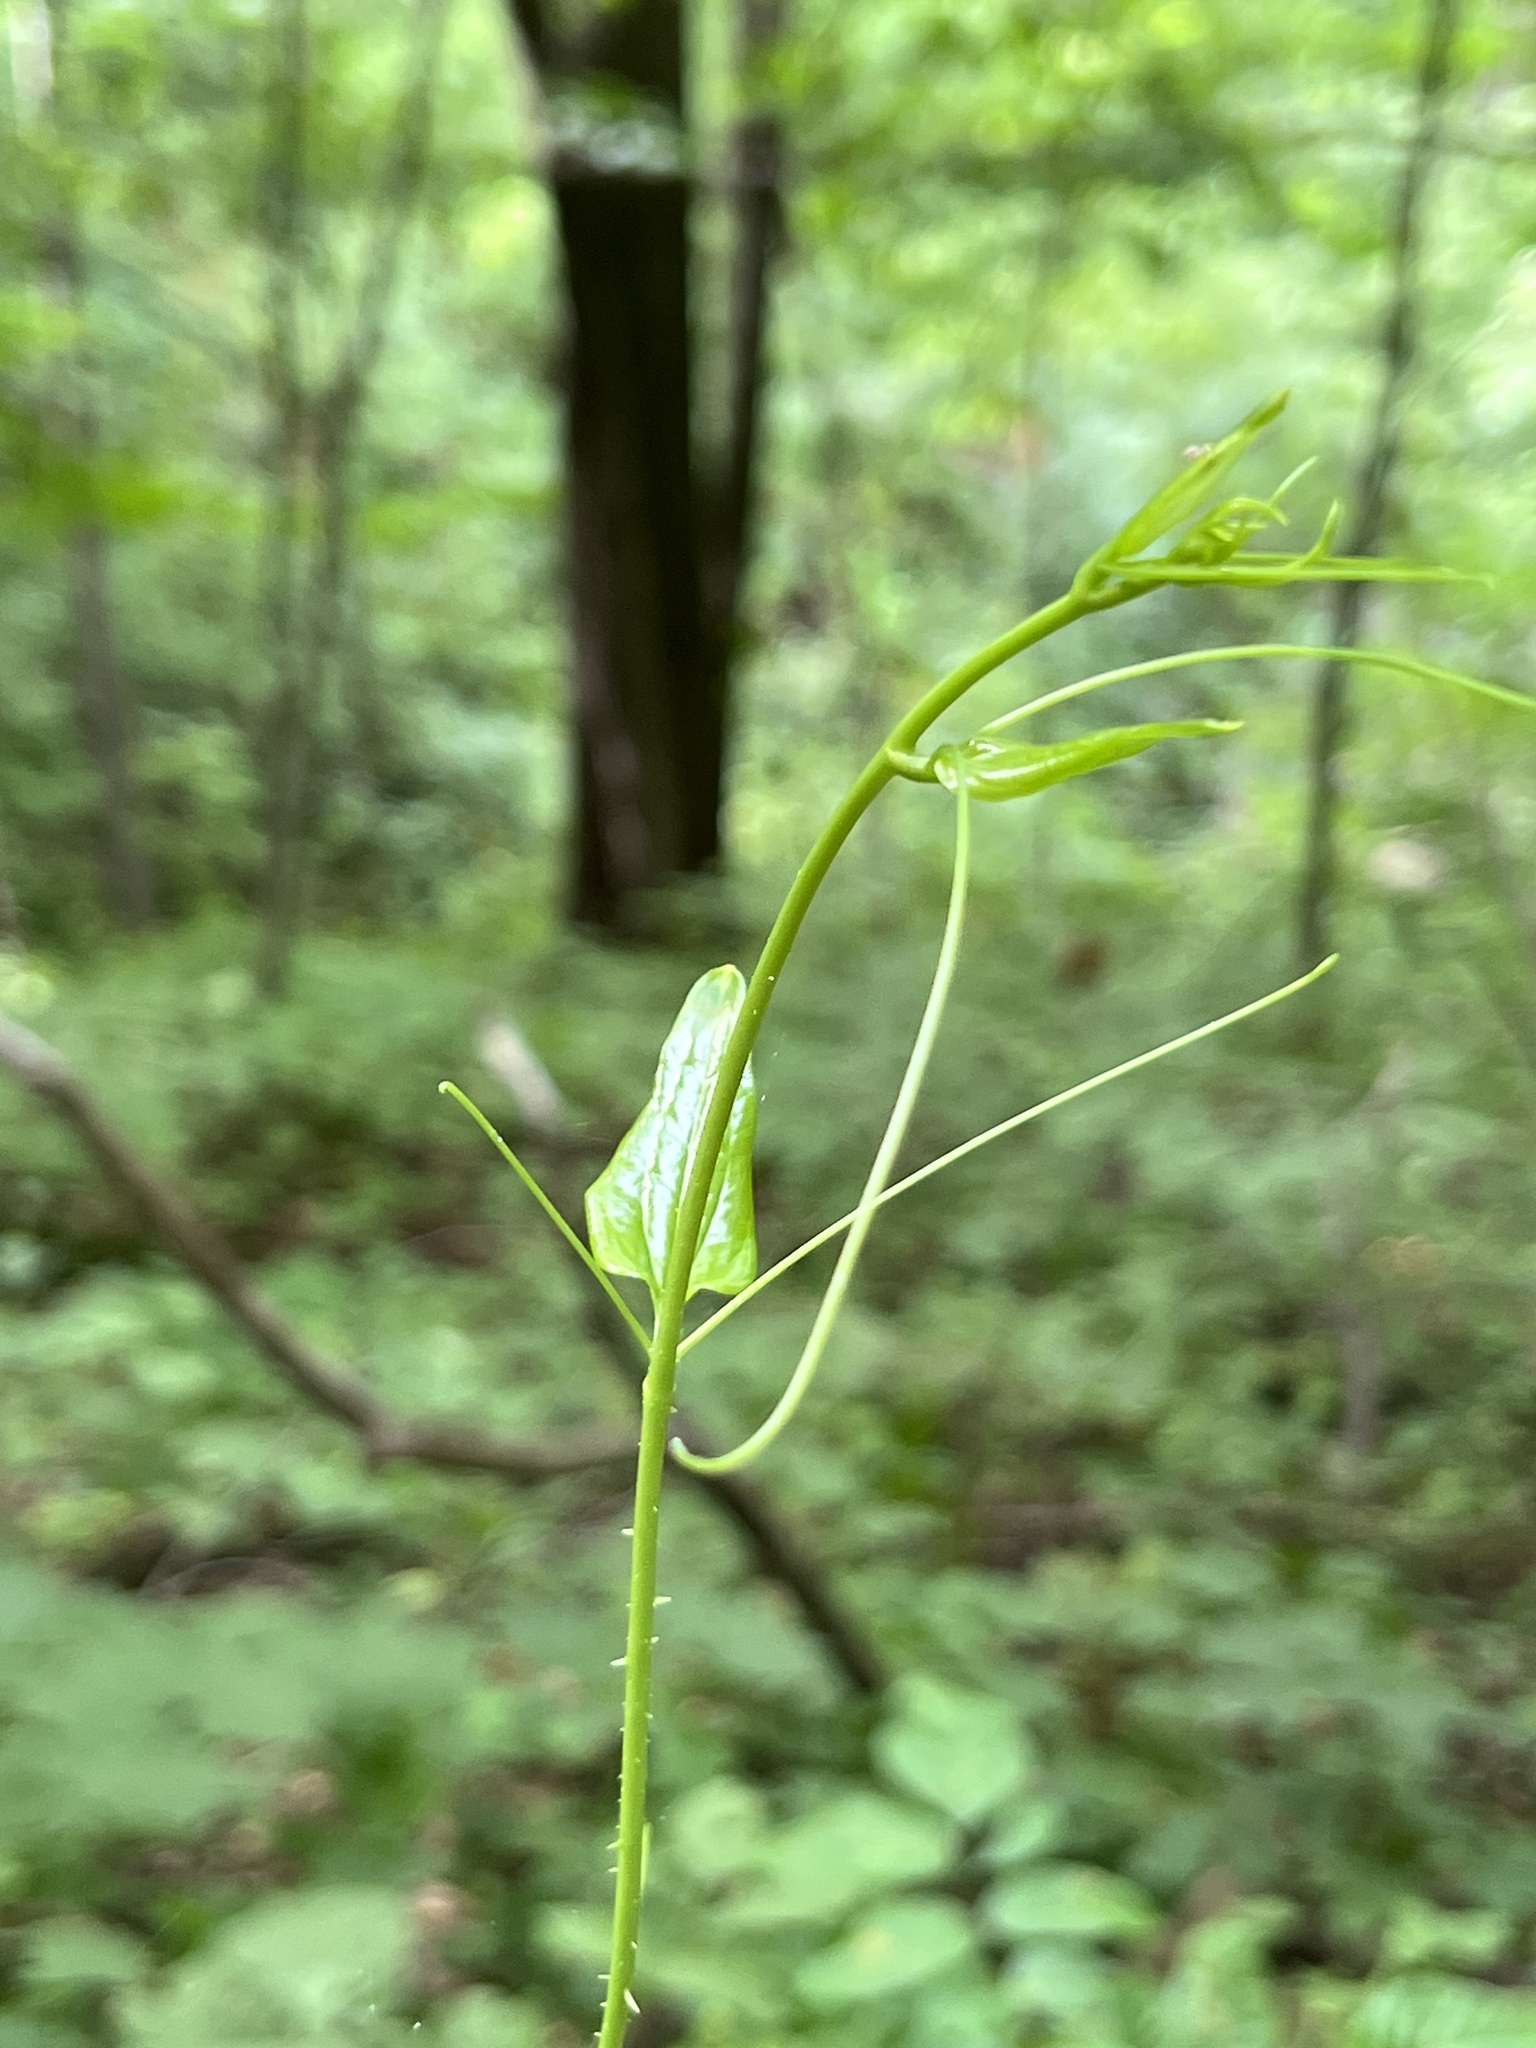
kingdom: Plantae
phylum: Tracheophyta
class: Liliopsida
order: Liliales
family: Smilacaceae
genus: Smilax
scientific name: Smilax tamnoides
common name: Hellfetter
